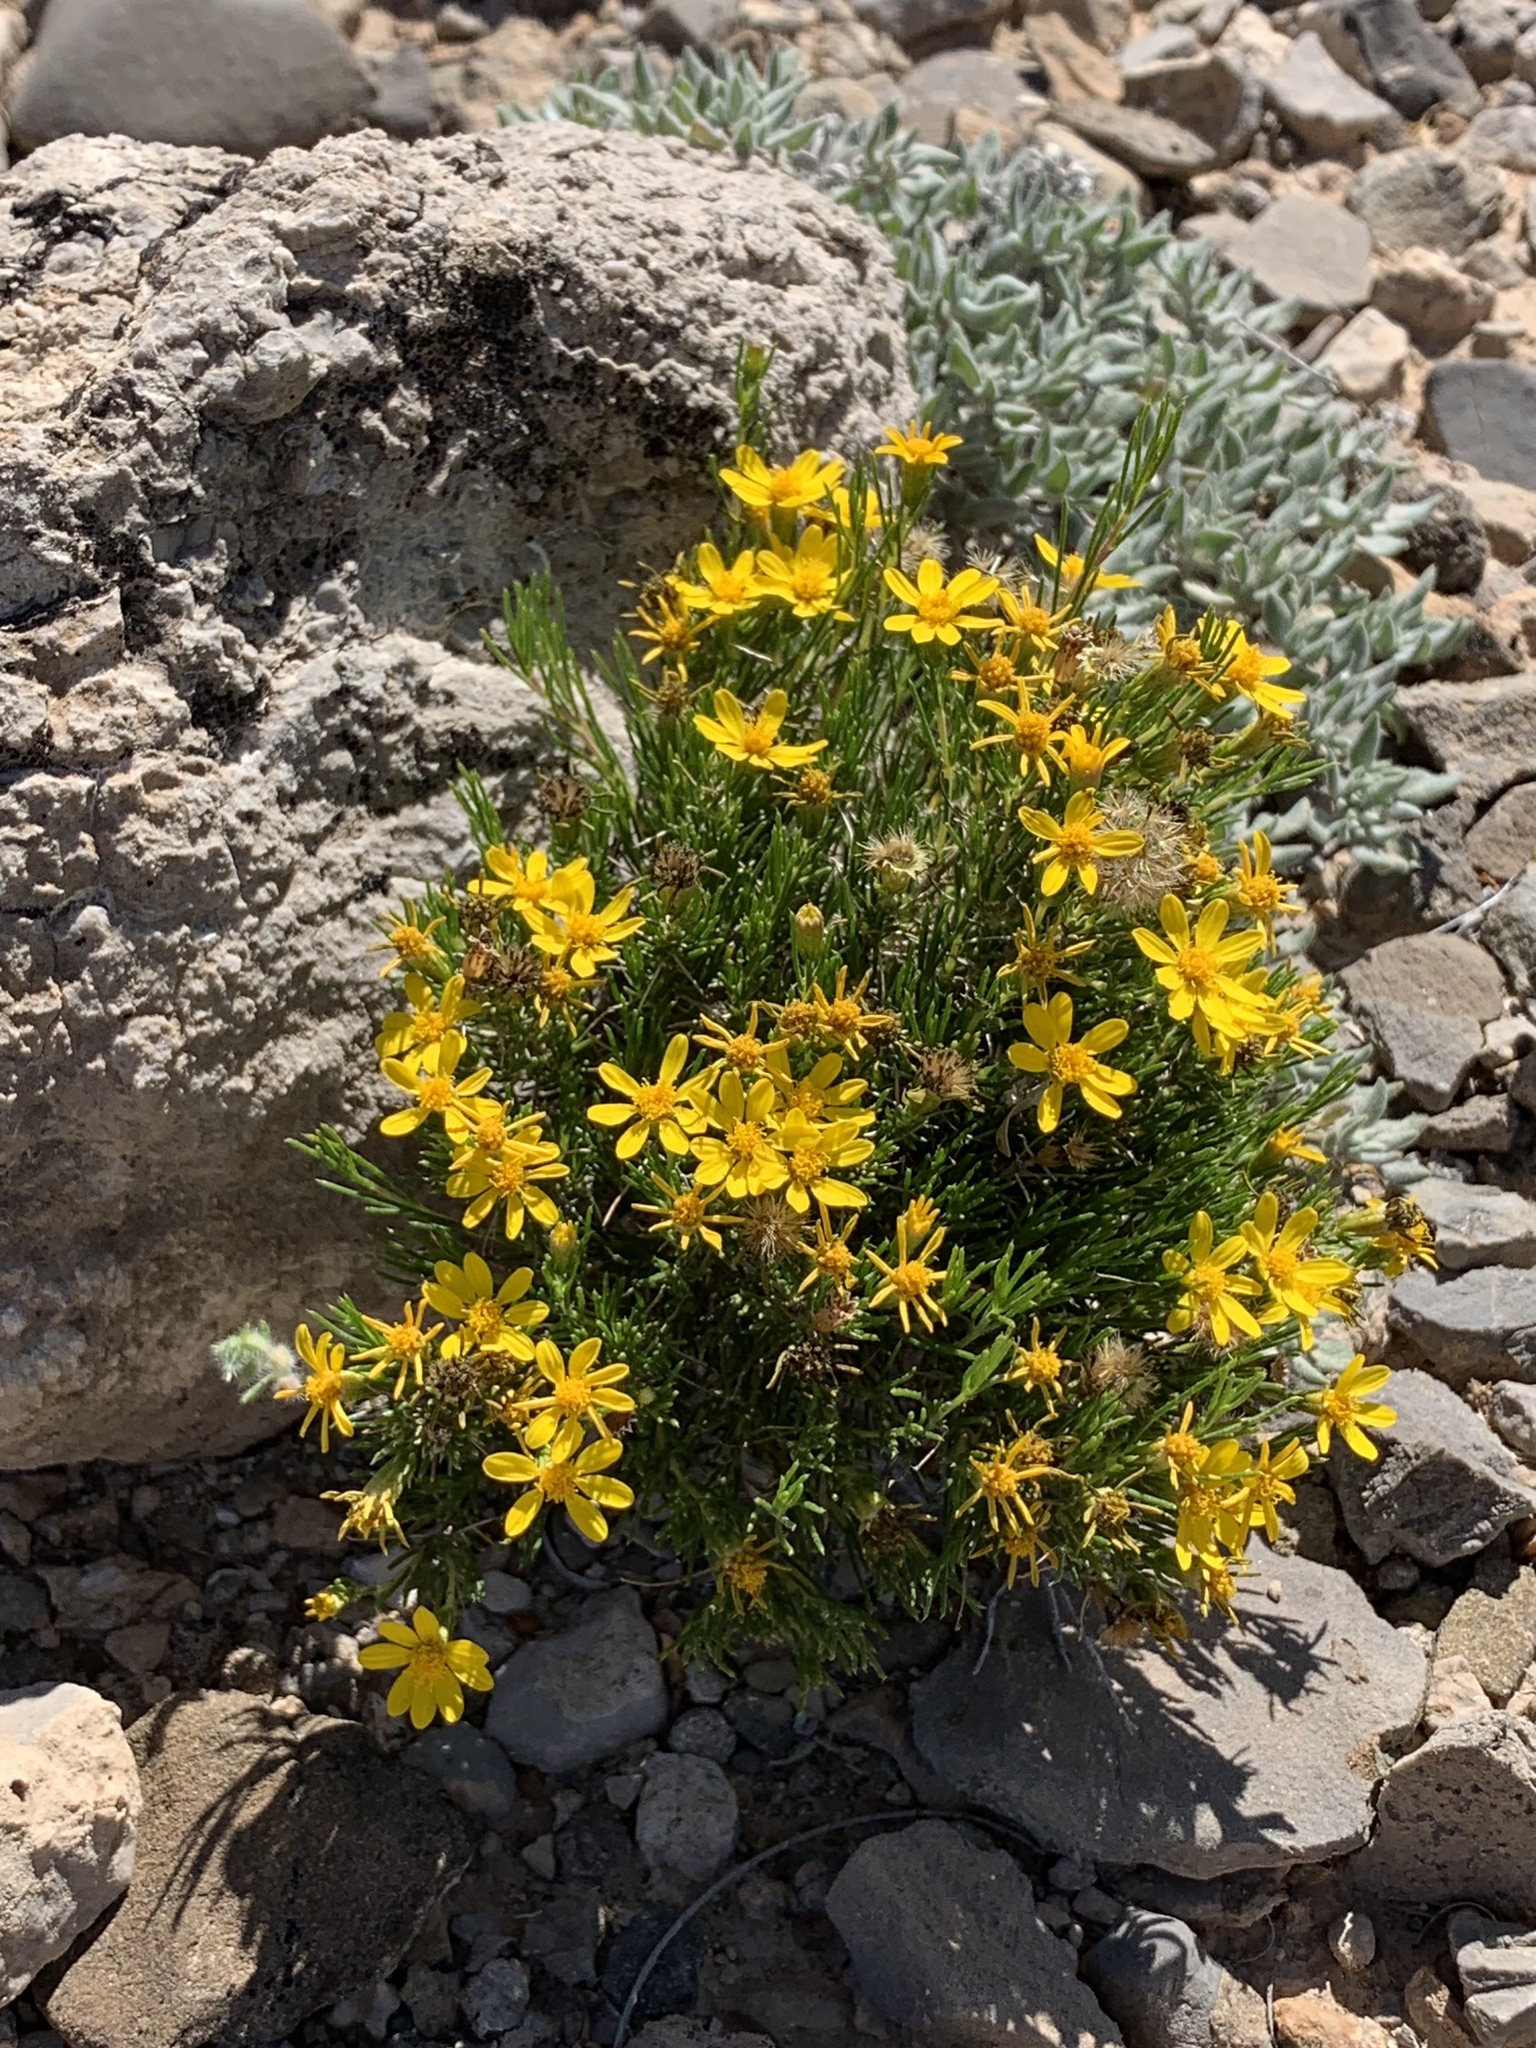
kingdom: Plantae
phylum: Tracheophyta
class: Magnoliopsida
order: Asterales
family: Asteraceae
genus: Thymophylla
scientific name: Thymophylla acerosa
